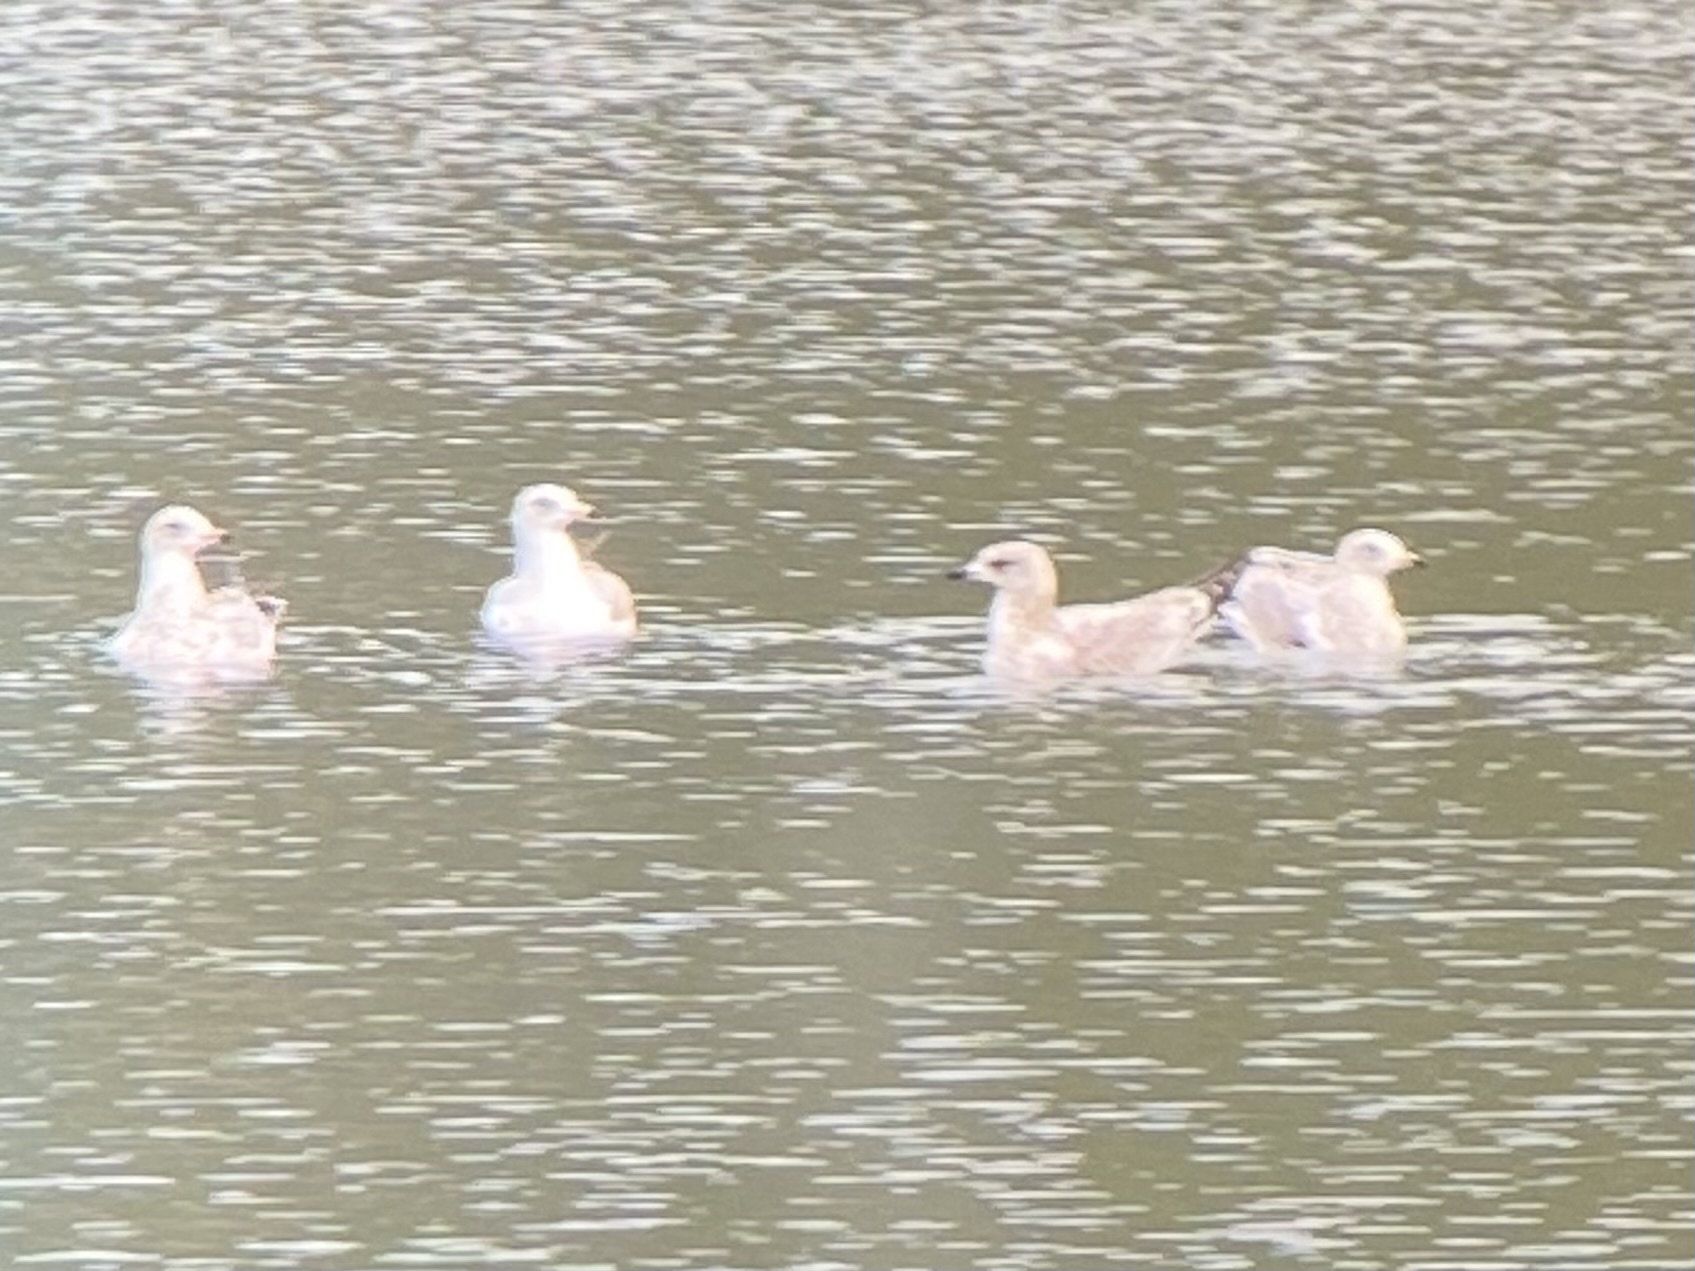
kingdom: Animalia
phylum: Chordata
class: Aves
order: Charadriiformes
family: Laridae
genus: Larus
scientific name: Larus delawarensis
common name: Ring-billed gull
